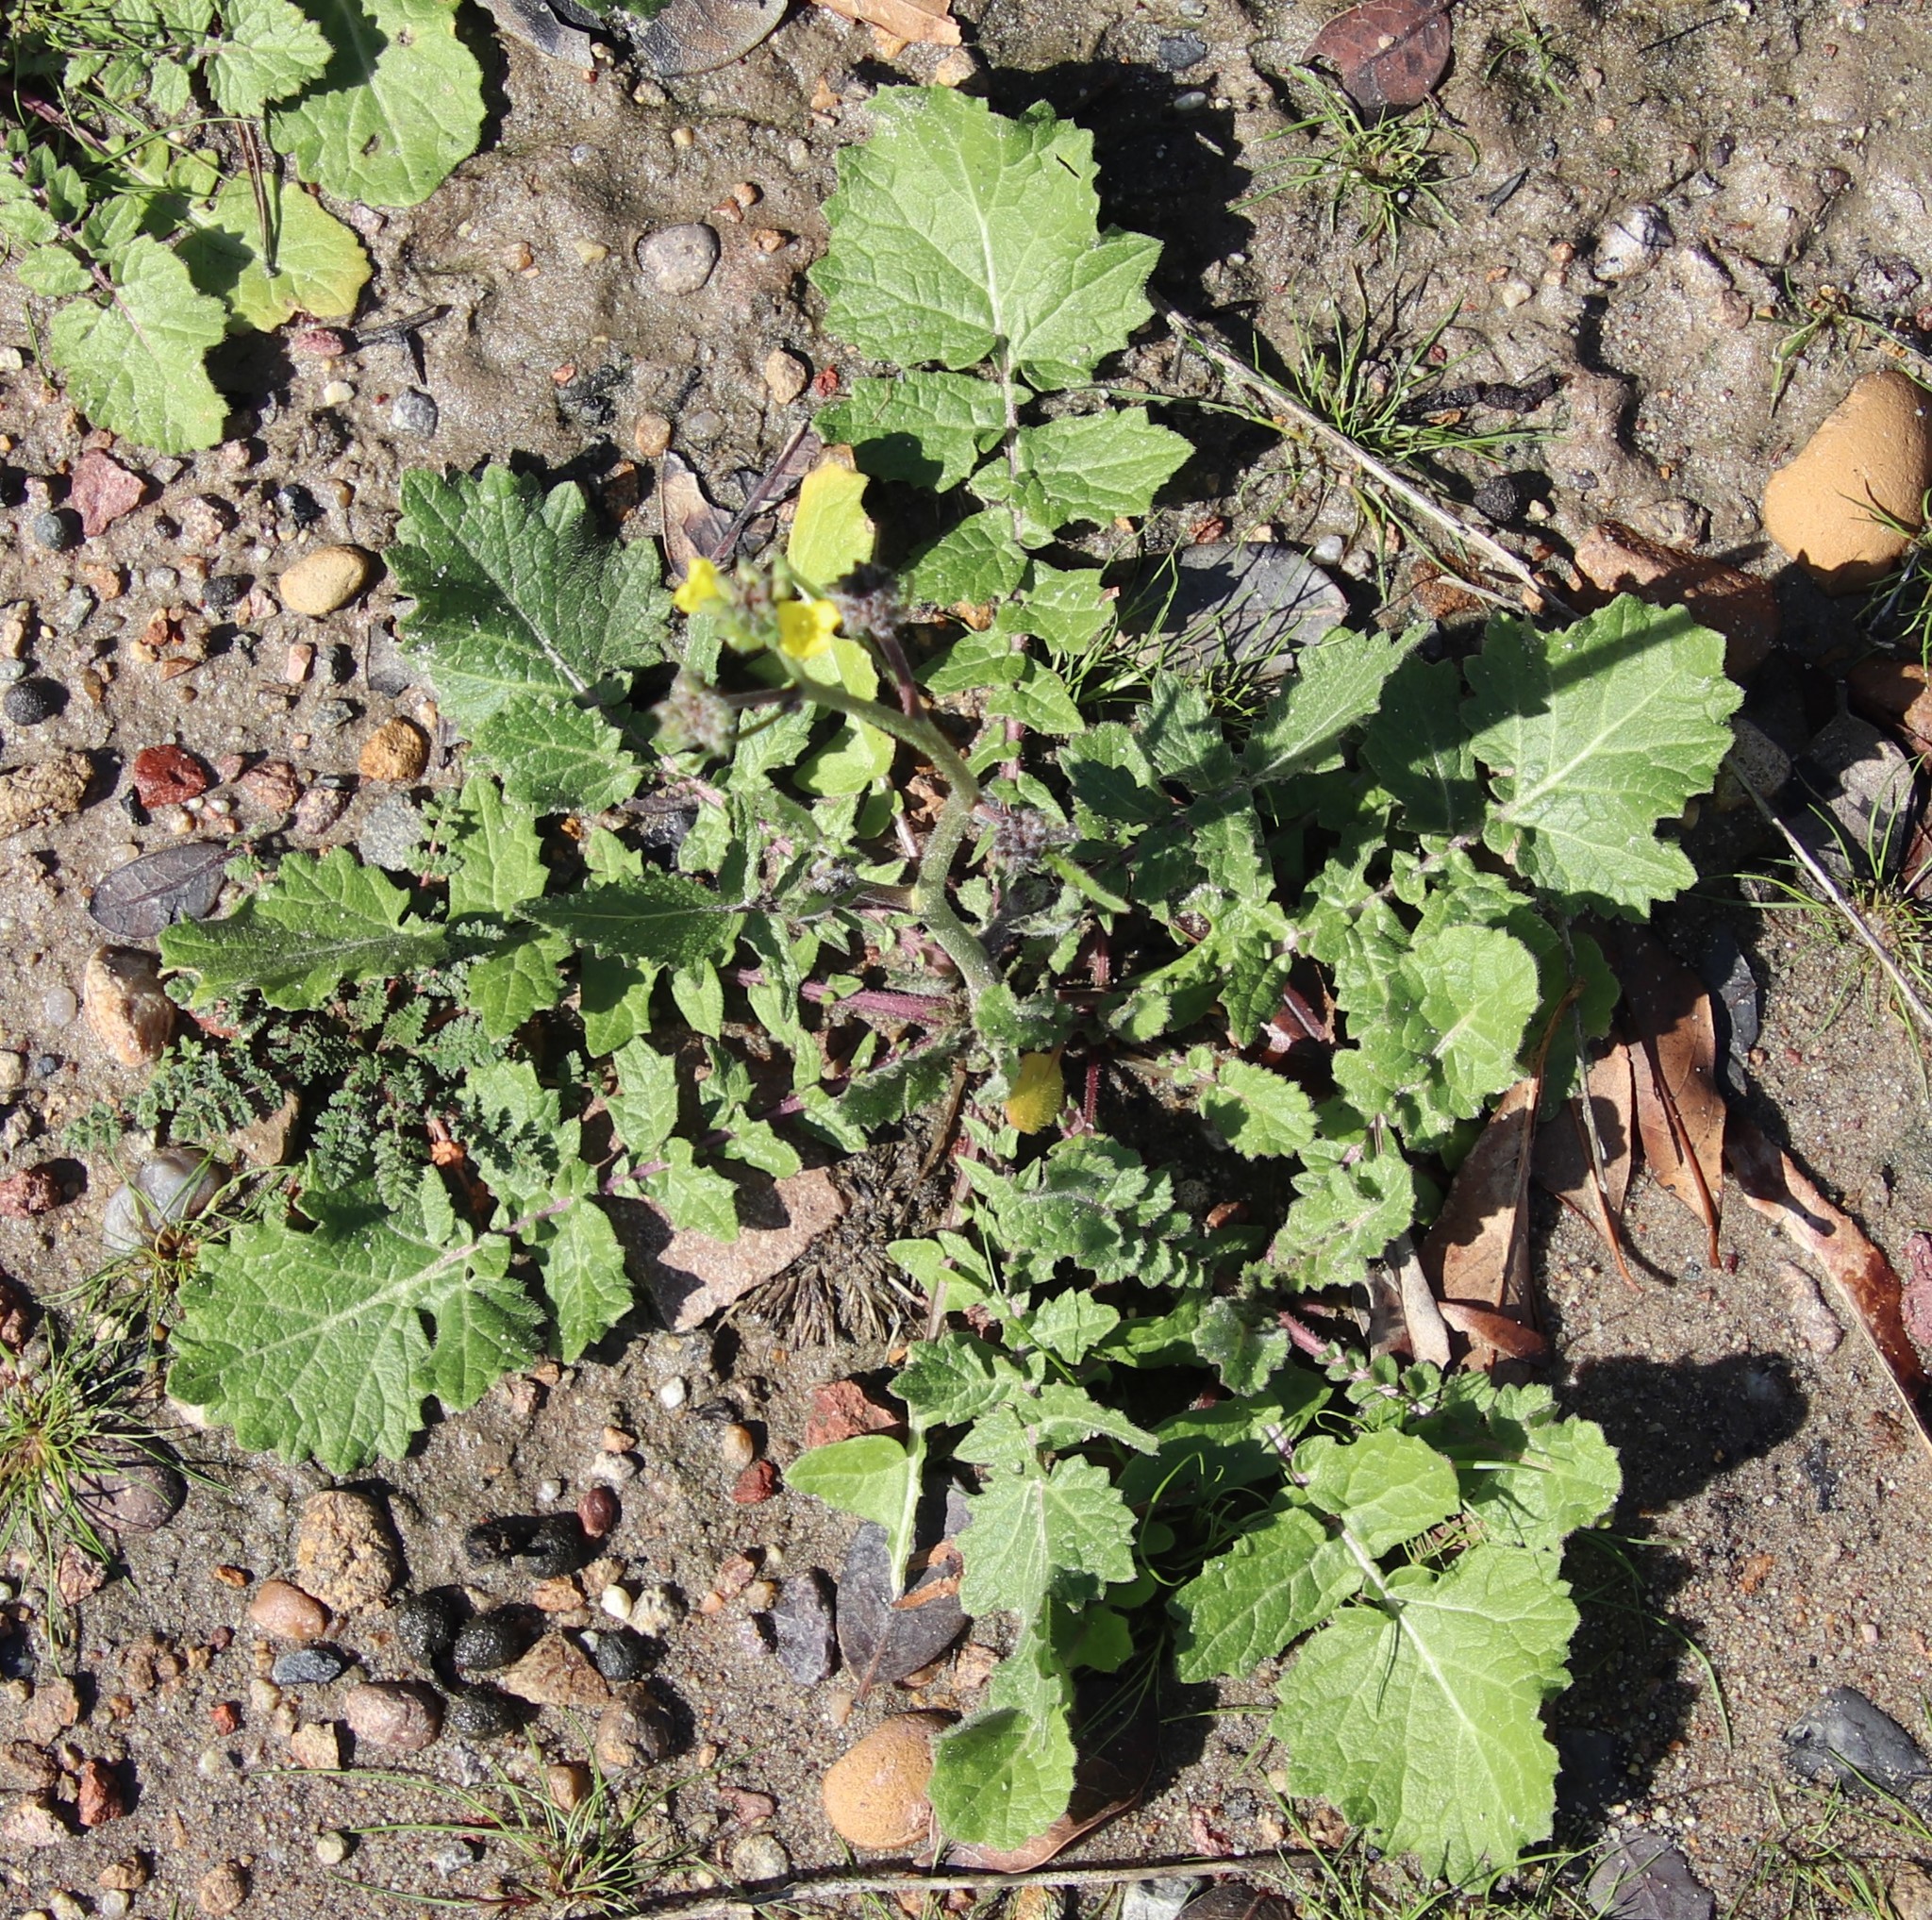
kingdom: Plantae
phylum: Tracheophyta
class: Magnoliopsida
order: Brassicales
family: Brassicaceae
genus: Hirschfeldia
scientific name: Hirschfeldia incana
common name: Hoary mustard
